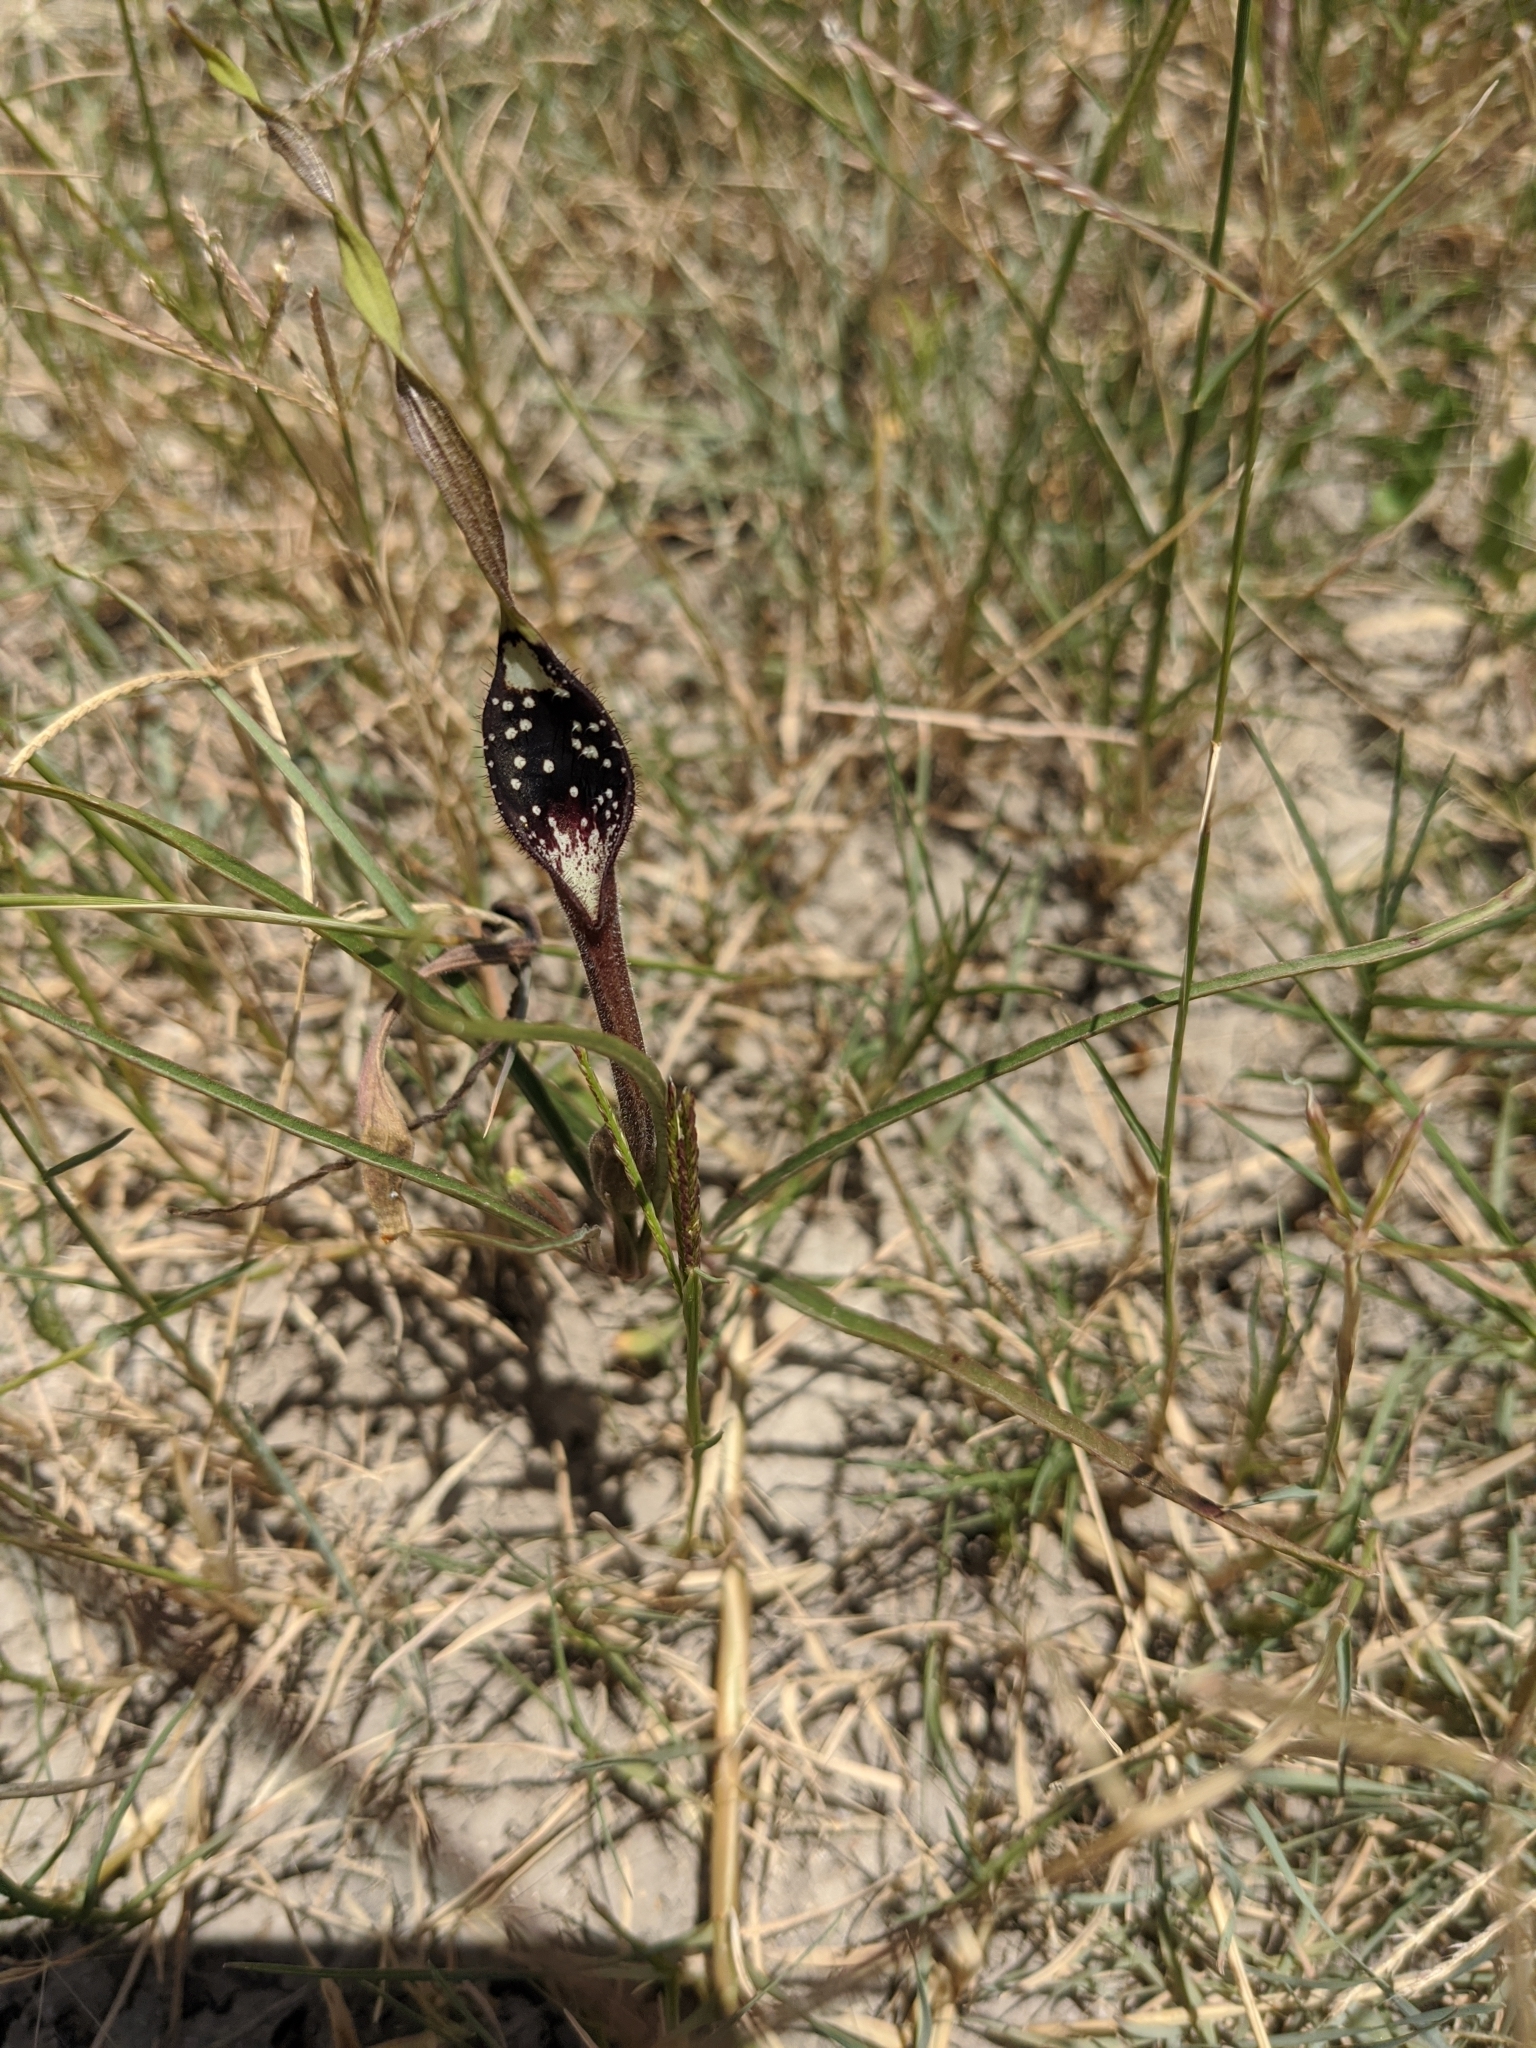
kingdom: Plantae
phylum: Tracheophyta
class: Magnoliopsida
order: Piperales
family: Aristolochiaceae
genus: Aristolochia
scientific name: Aristolochia erecta
